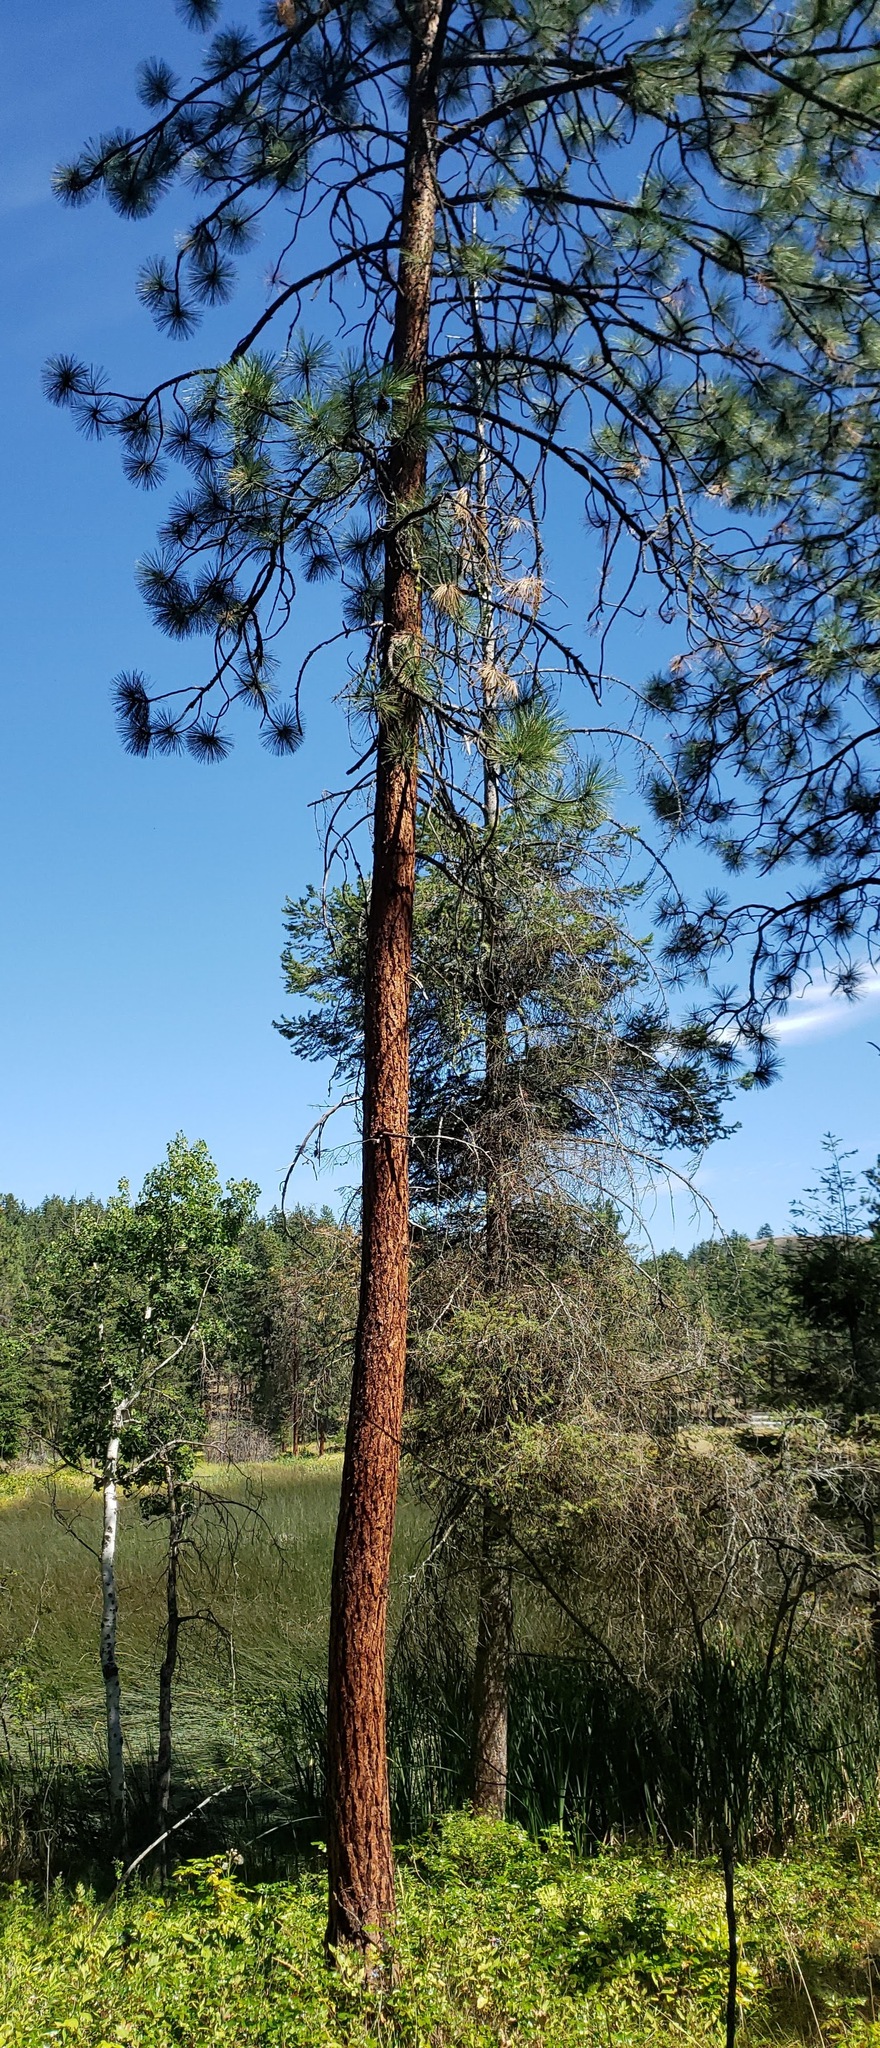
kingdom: Plantae
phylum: Tracheophyta
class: Pinopsida
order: Pinales
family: Pinaceae
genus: Pinus
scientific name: Pinus ponderosa
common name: Western yellow-pine
